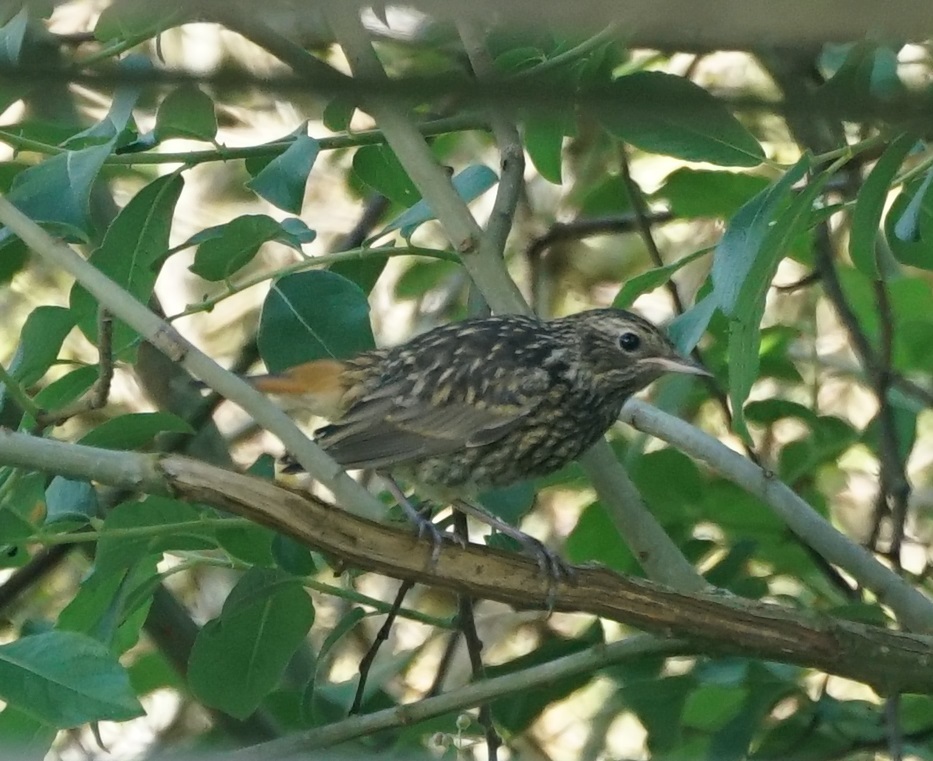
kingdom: Animalia
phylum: Chordata
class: Aves
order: Passeriformes
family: Muscicapidae
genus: Luscinia
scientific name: Luscinia svecica
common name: Bluethroat
